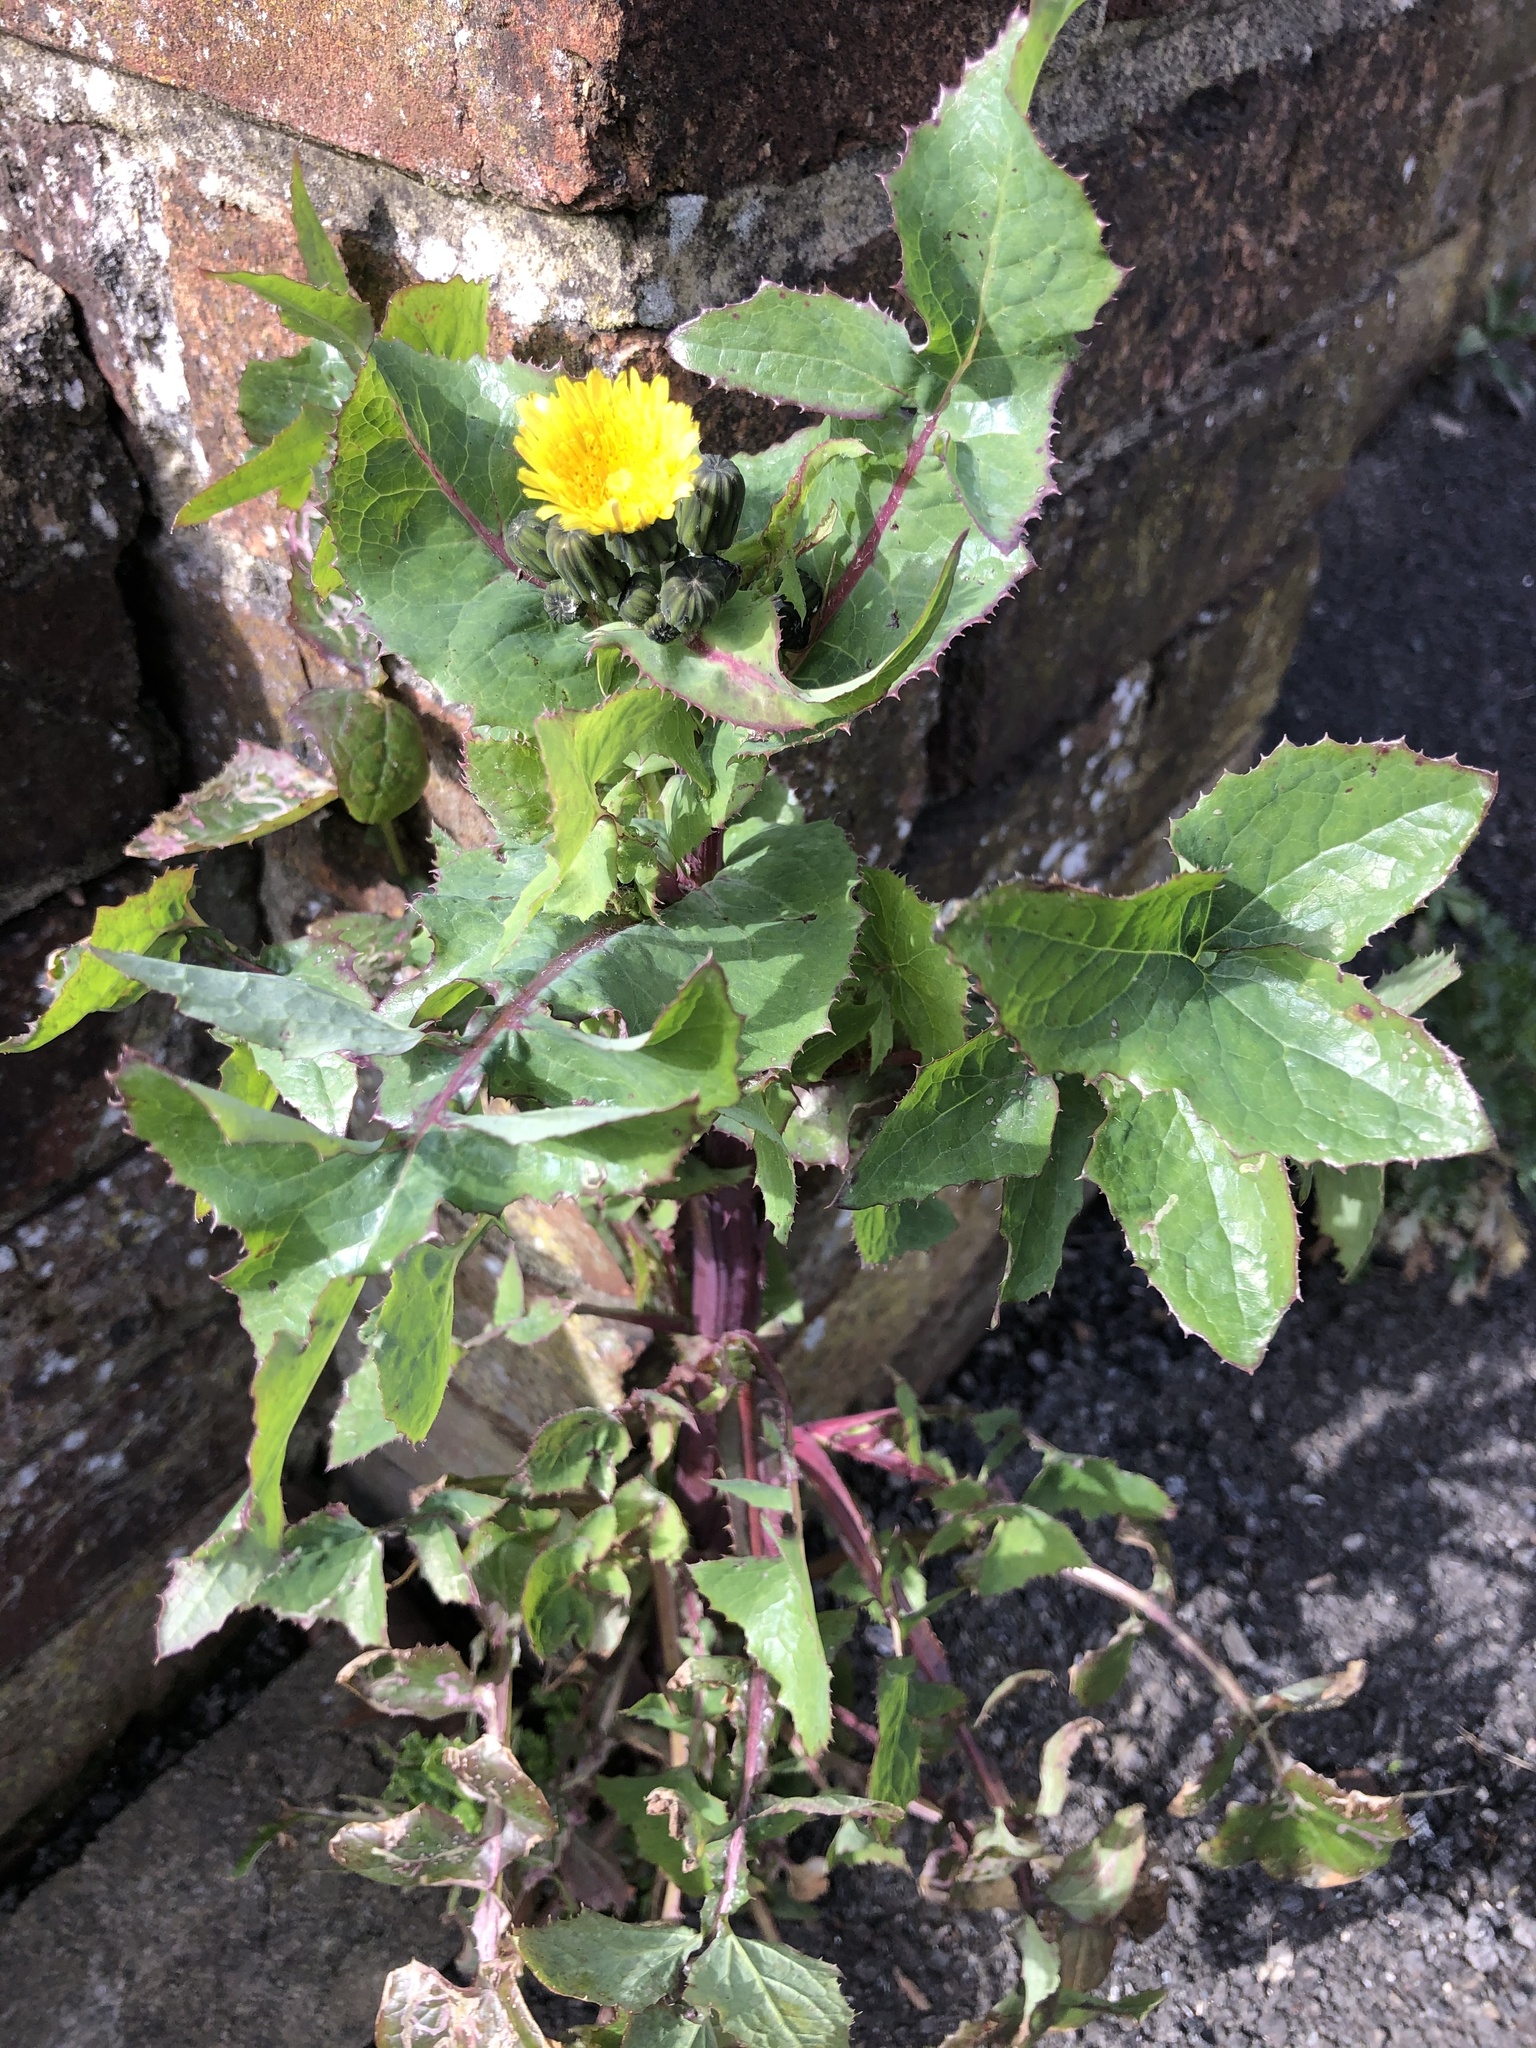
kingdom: Plantae
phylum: Tracheophyta
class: Magnoliopsida
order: Asterales
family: Asteraceae
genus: Sonchus
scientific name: Sonchus oleraceus
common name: Common sowthistle
